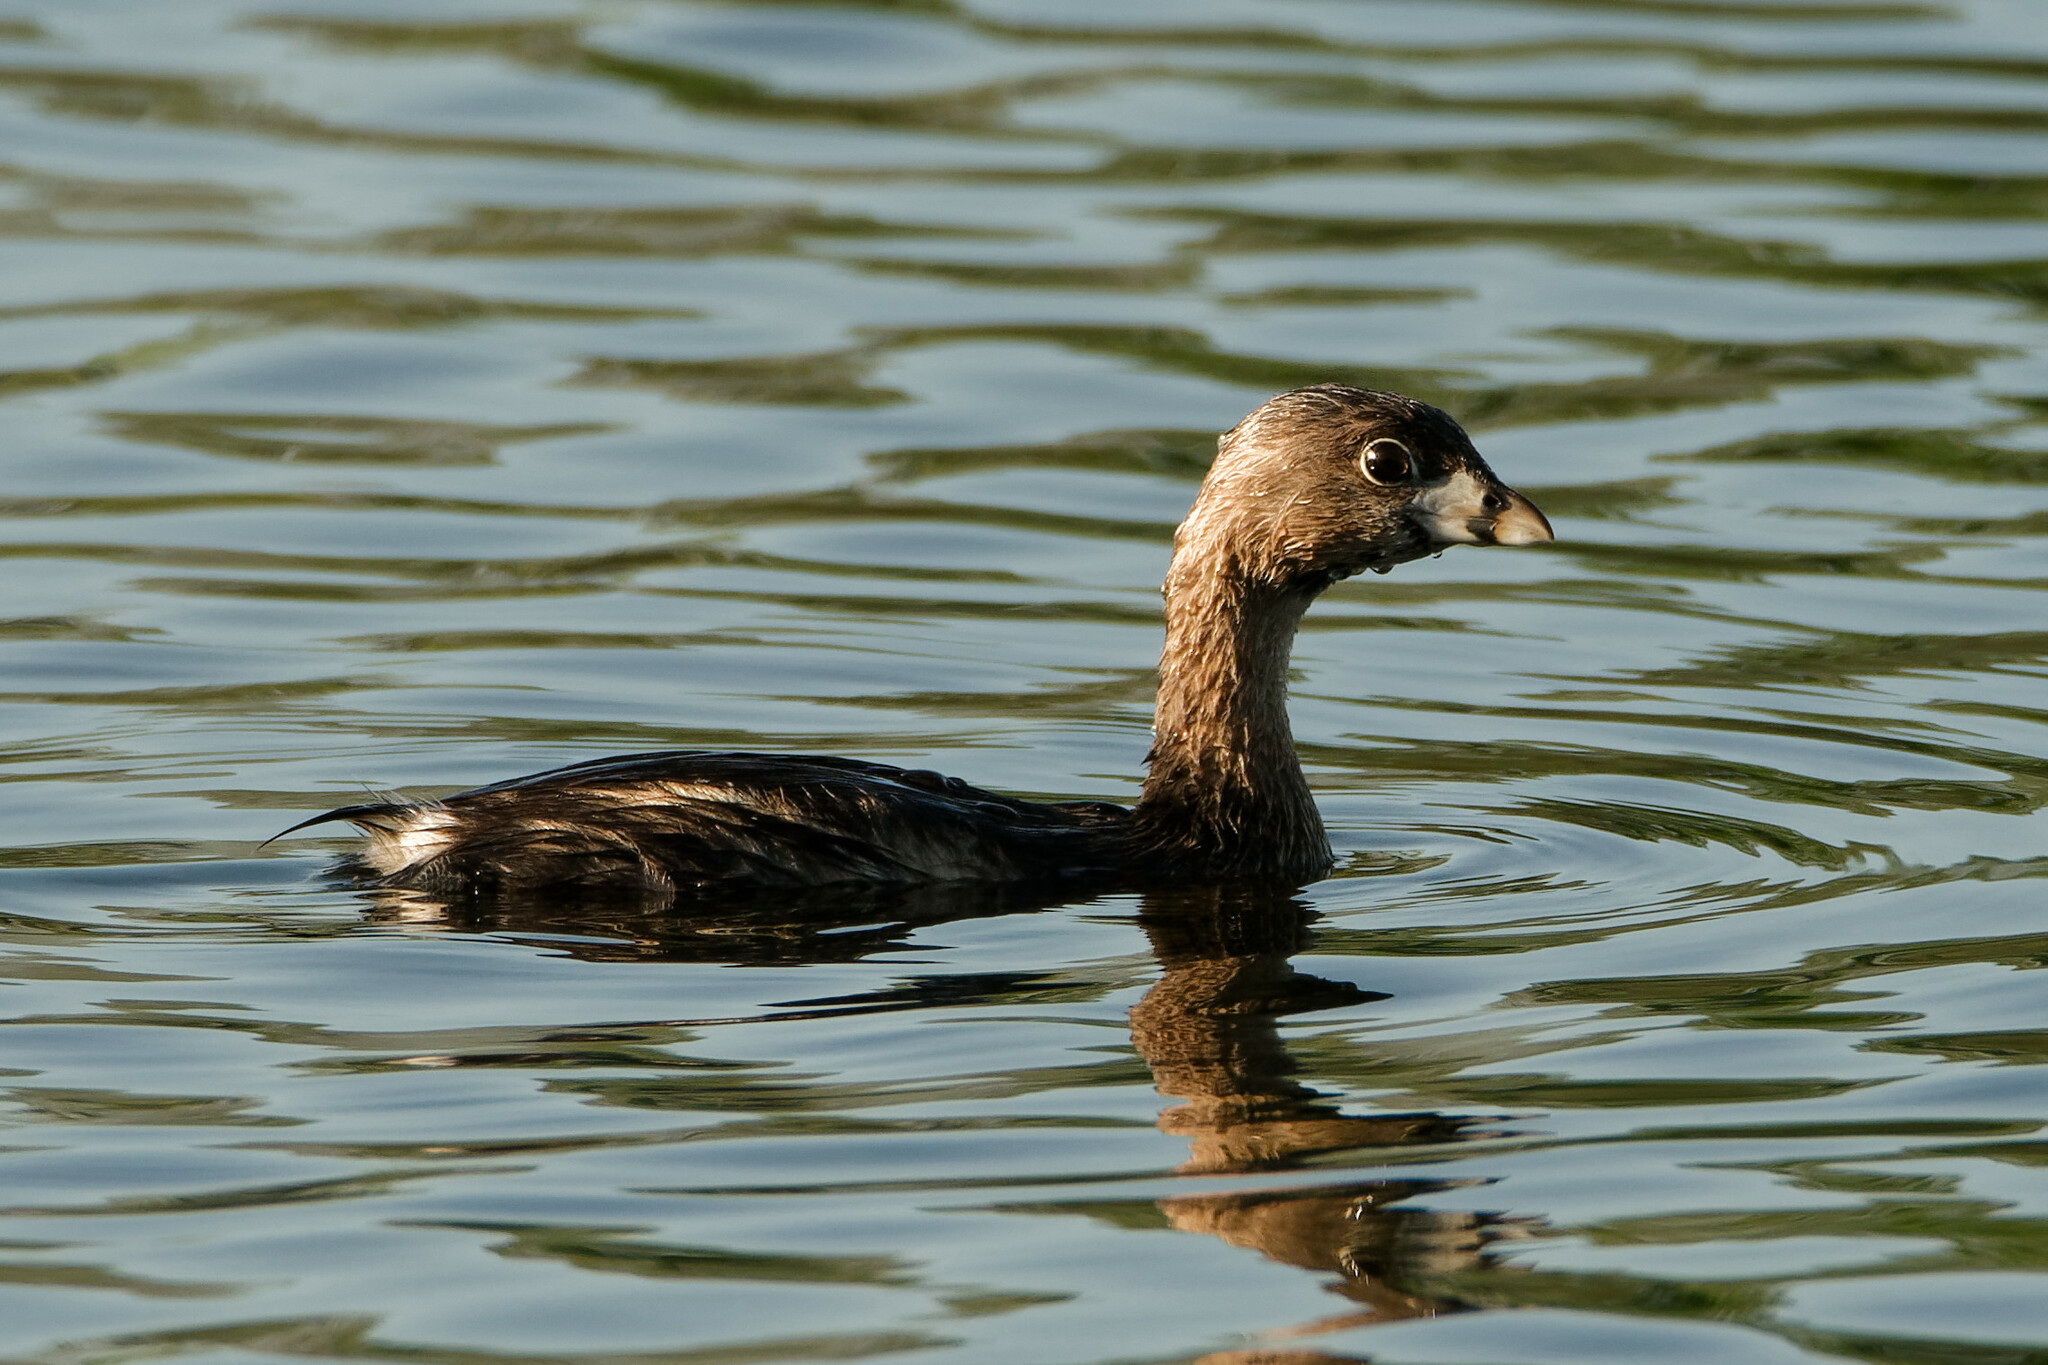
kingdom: Animalia
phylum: Chordata
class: Aves
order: Podicipediformes
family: Podicipedidae
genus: Podilymbus
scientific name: Podilymbus podiceps
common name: Pied-billed grebe
